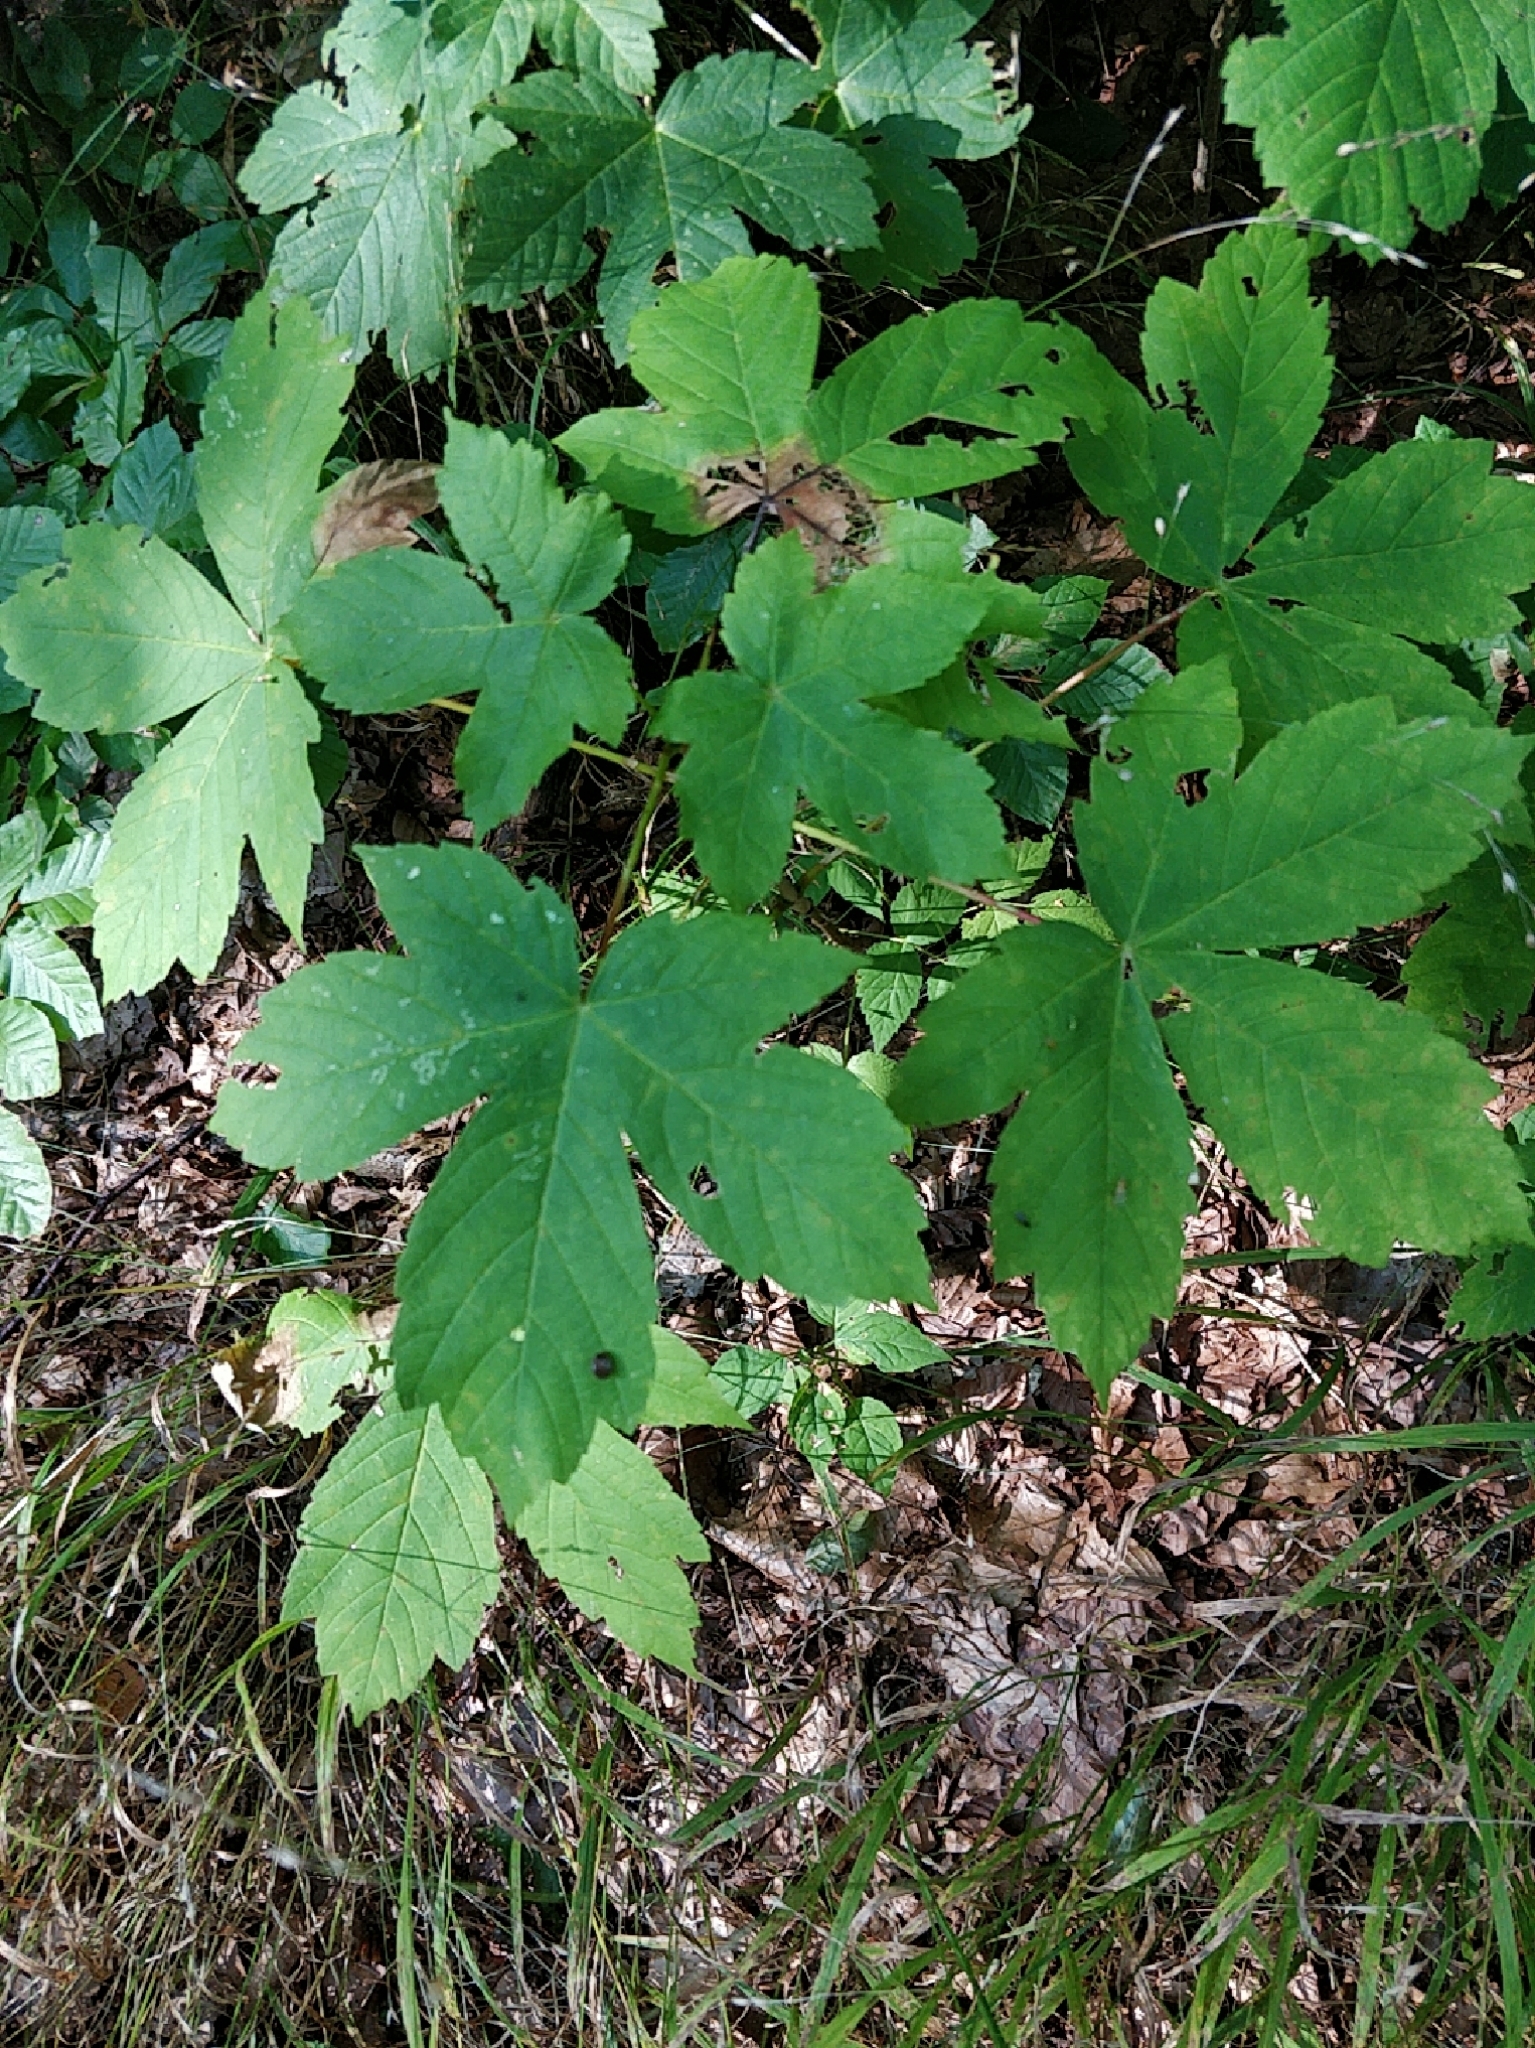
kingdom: Plantae
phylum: Tracheophyta
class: Magnoliopsida
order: Sapindales
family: Sapindaceae
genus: Acer
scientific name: Acer pseudoplatanus
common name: Sycamore
